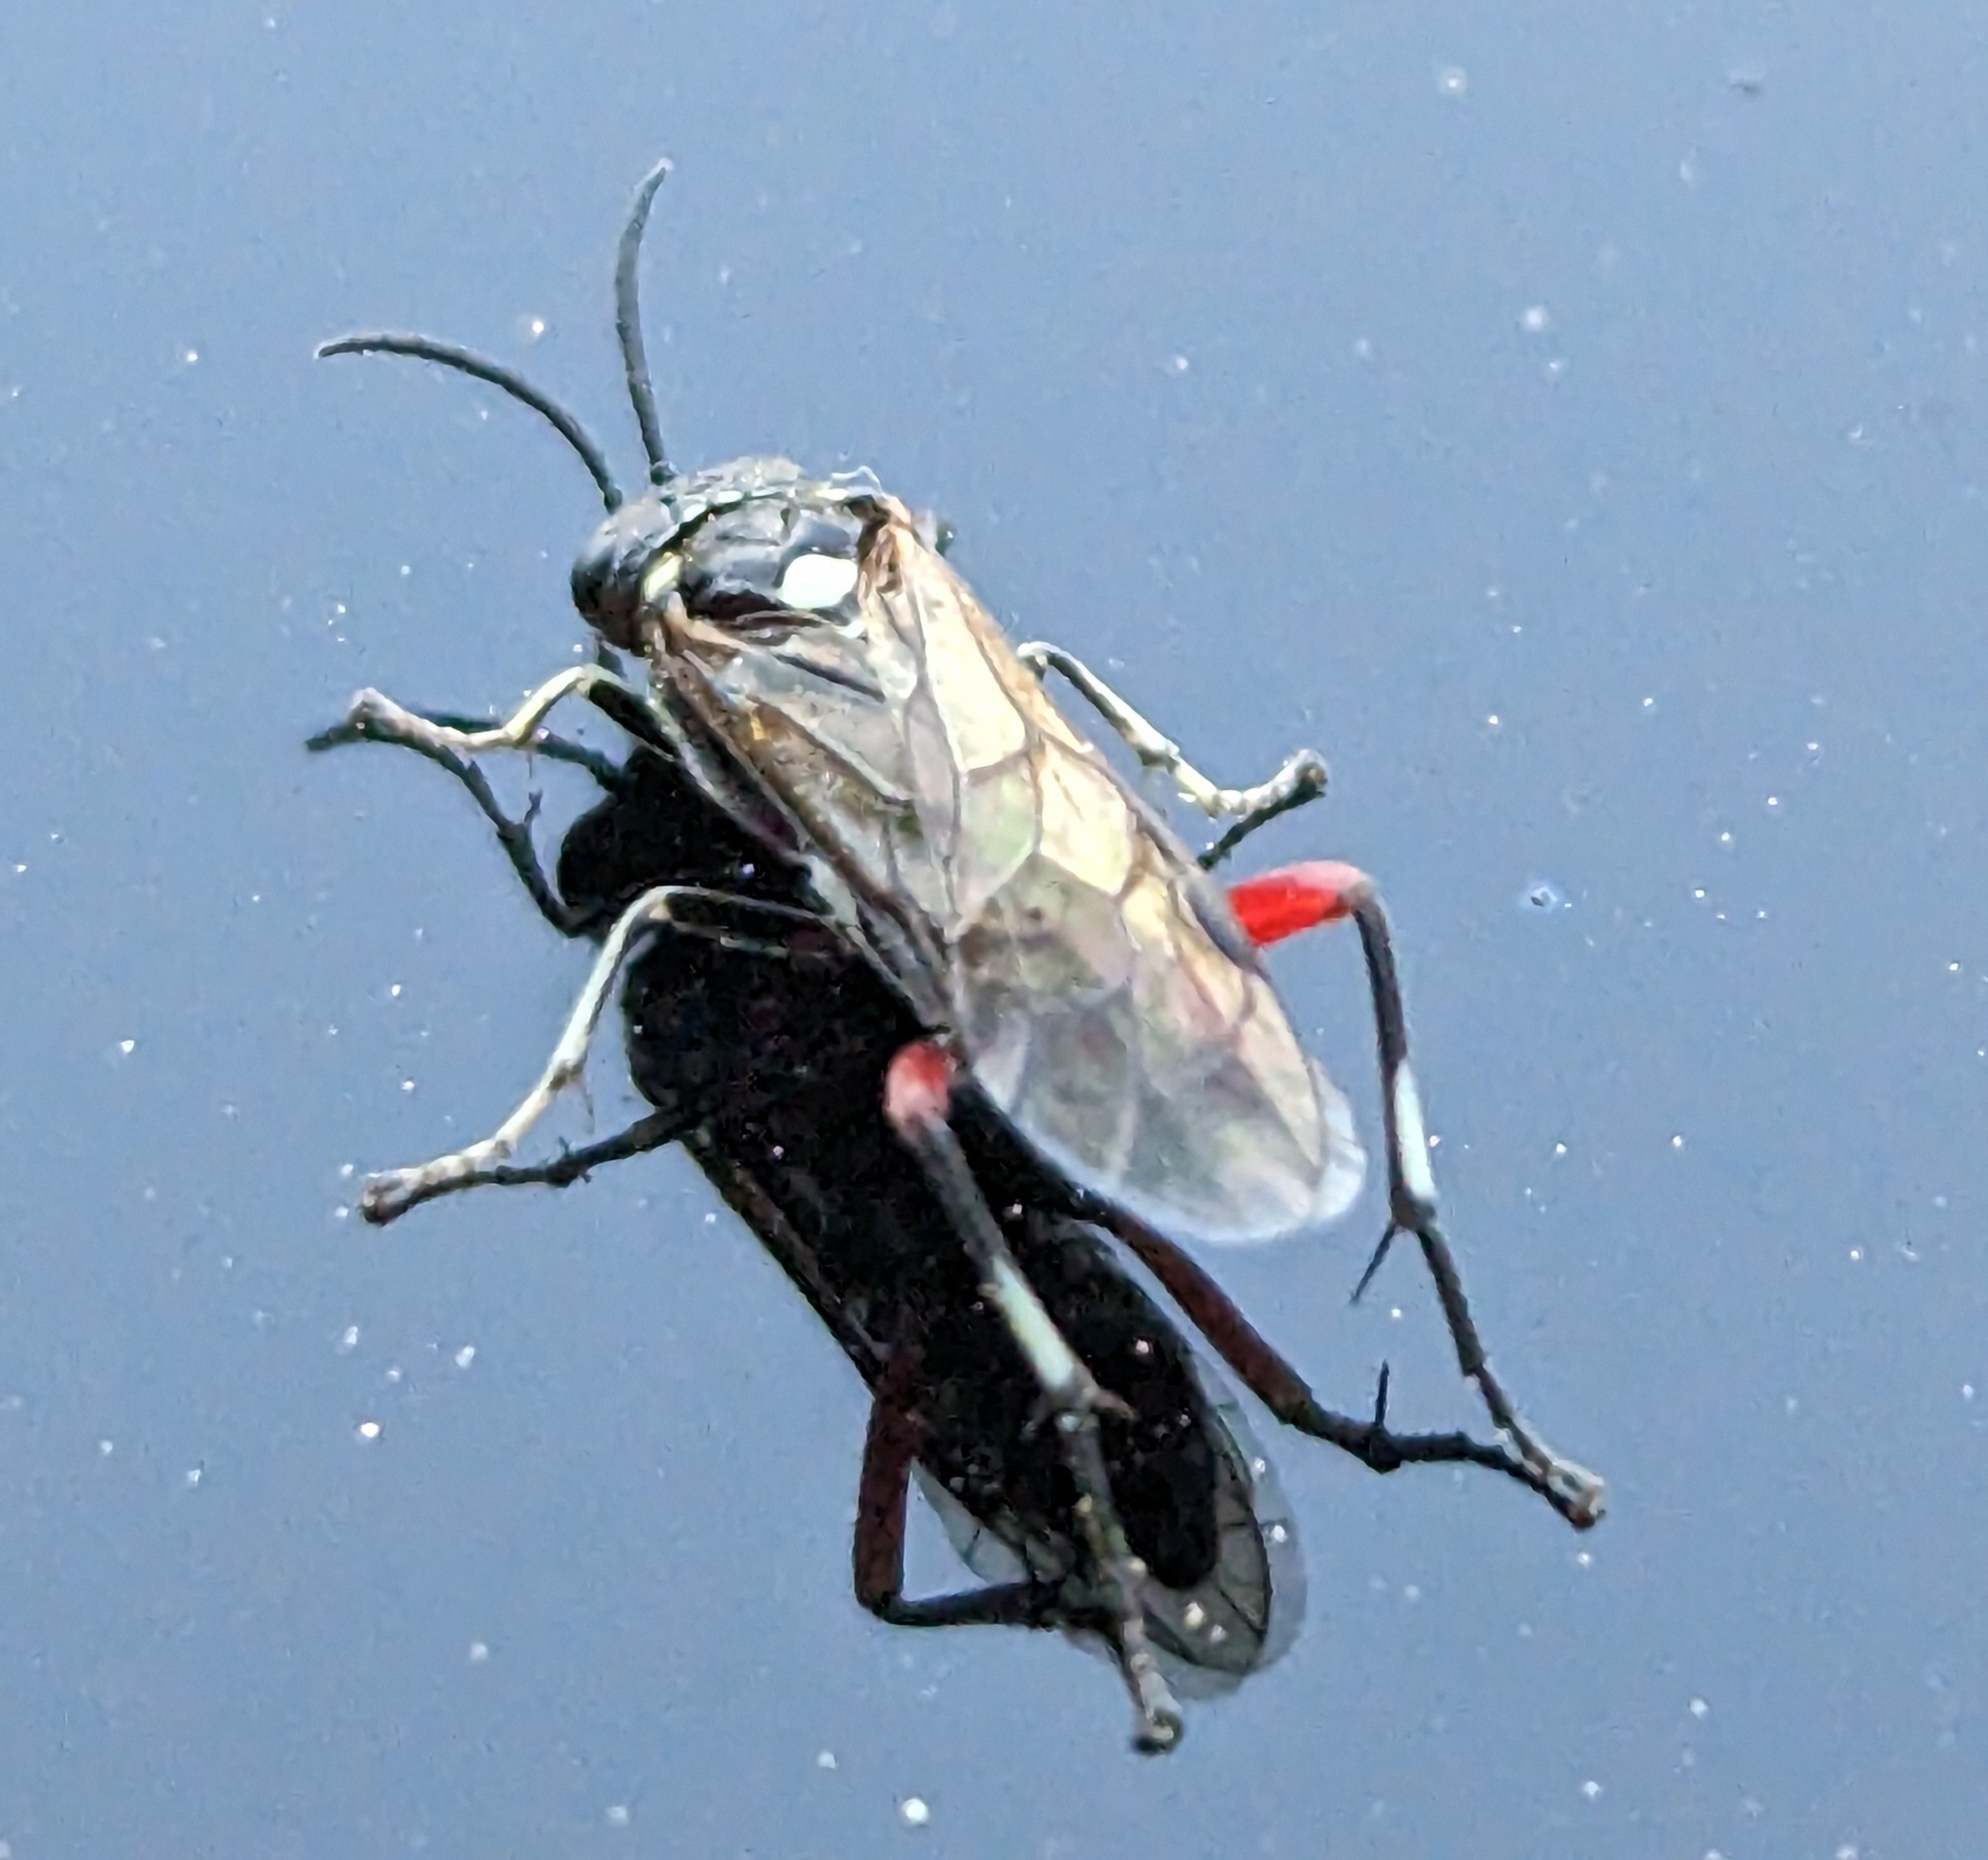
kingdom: Animalia
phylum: Arthropoda
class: Insecta
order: Hymenoptera
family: Tenthredinidae
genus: Macrophya
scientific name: Macrophya punctumalbum
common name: Sawfly
